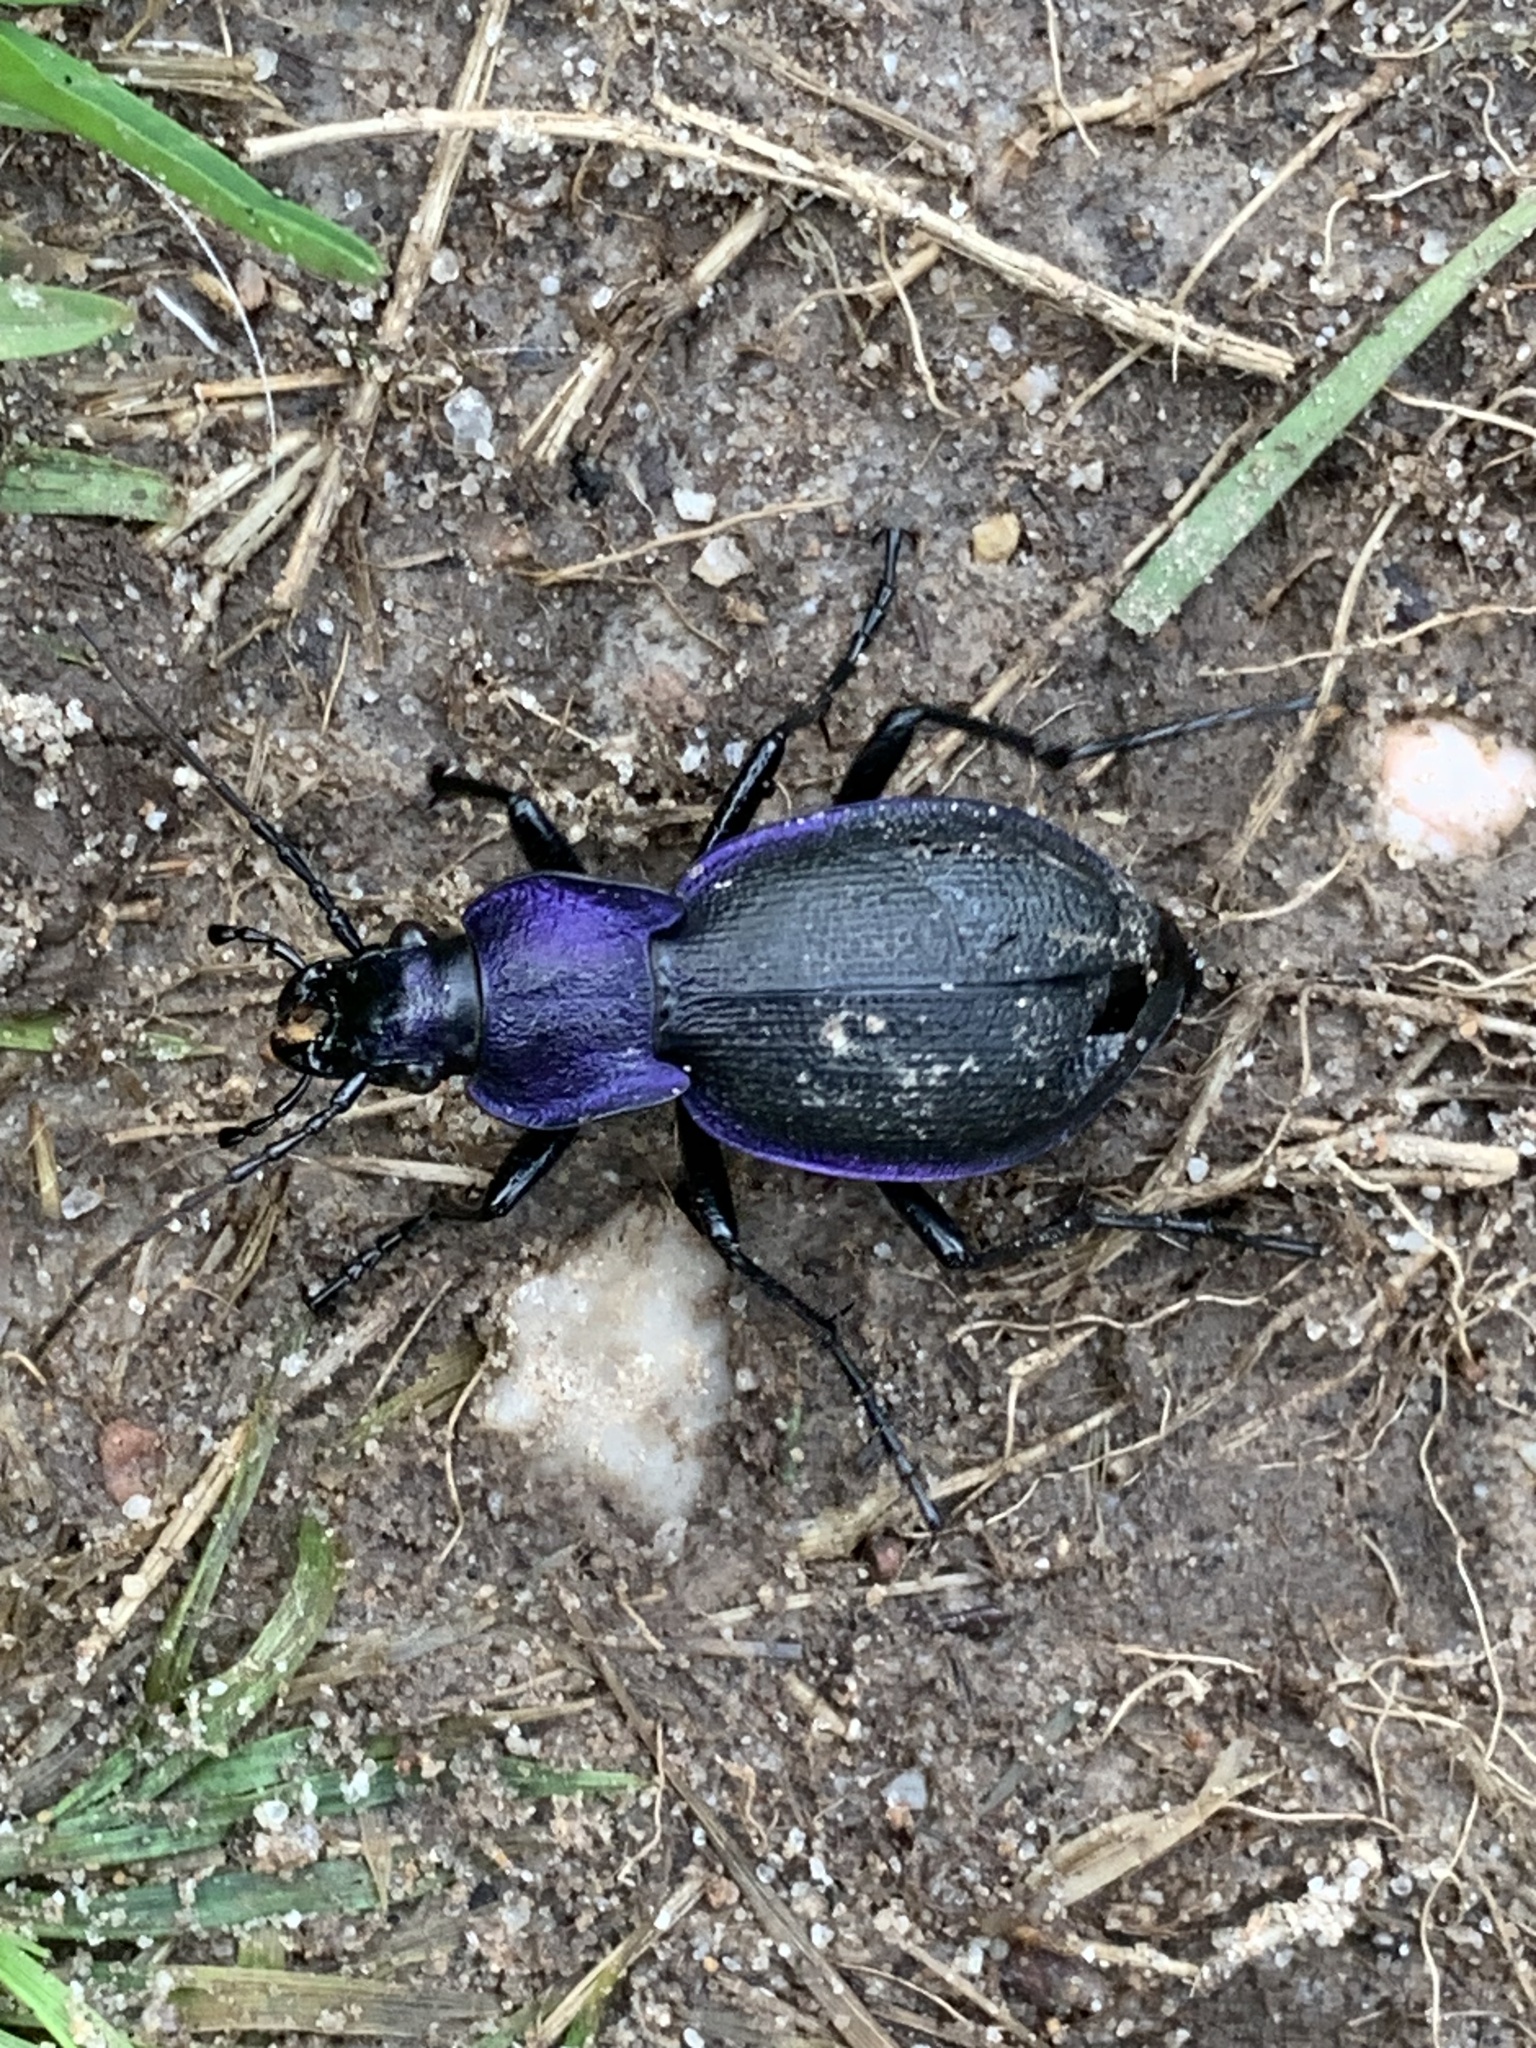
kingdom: Animalia
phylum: Arthropoda
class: Insecta
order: Coleoptera
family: Carabidae
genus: Carabus
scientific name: Carabus problematicus
